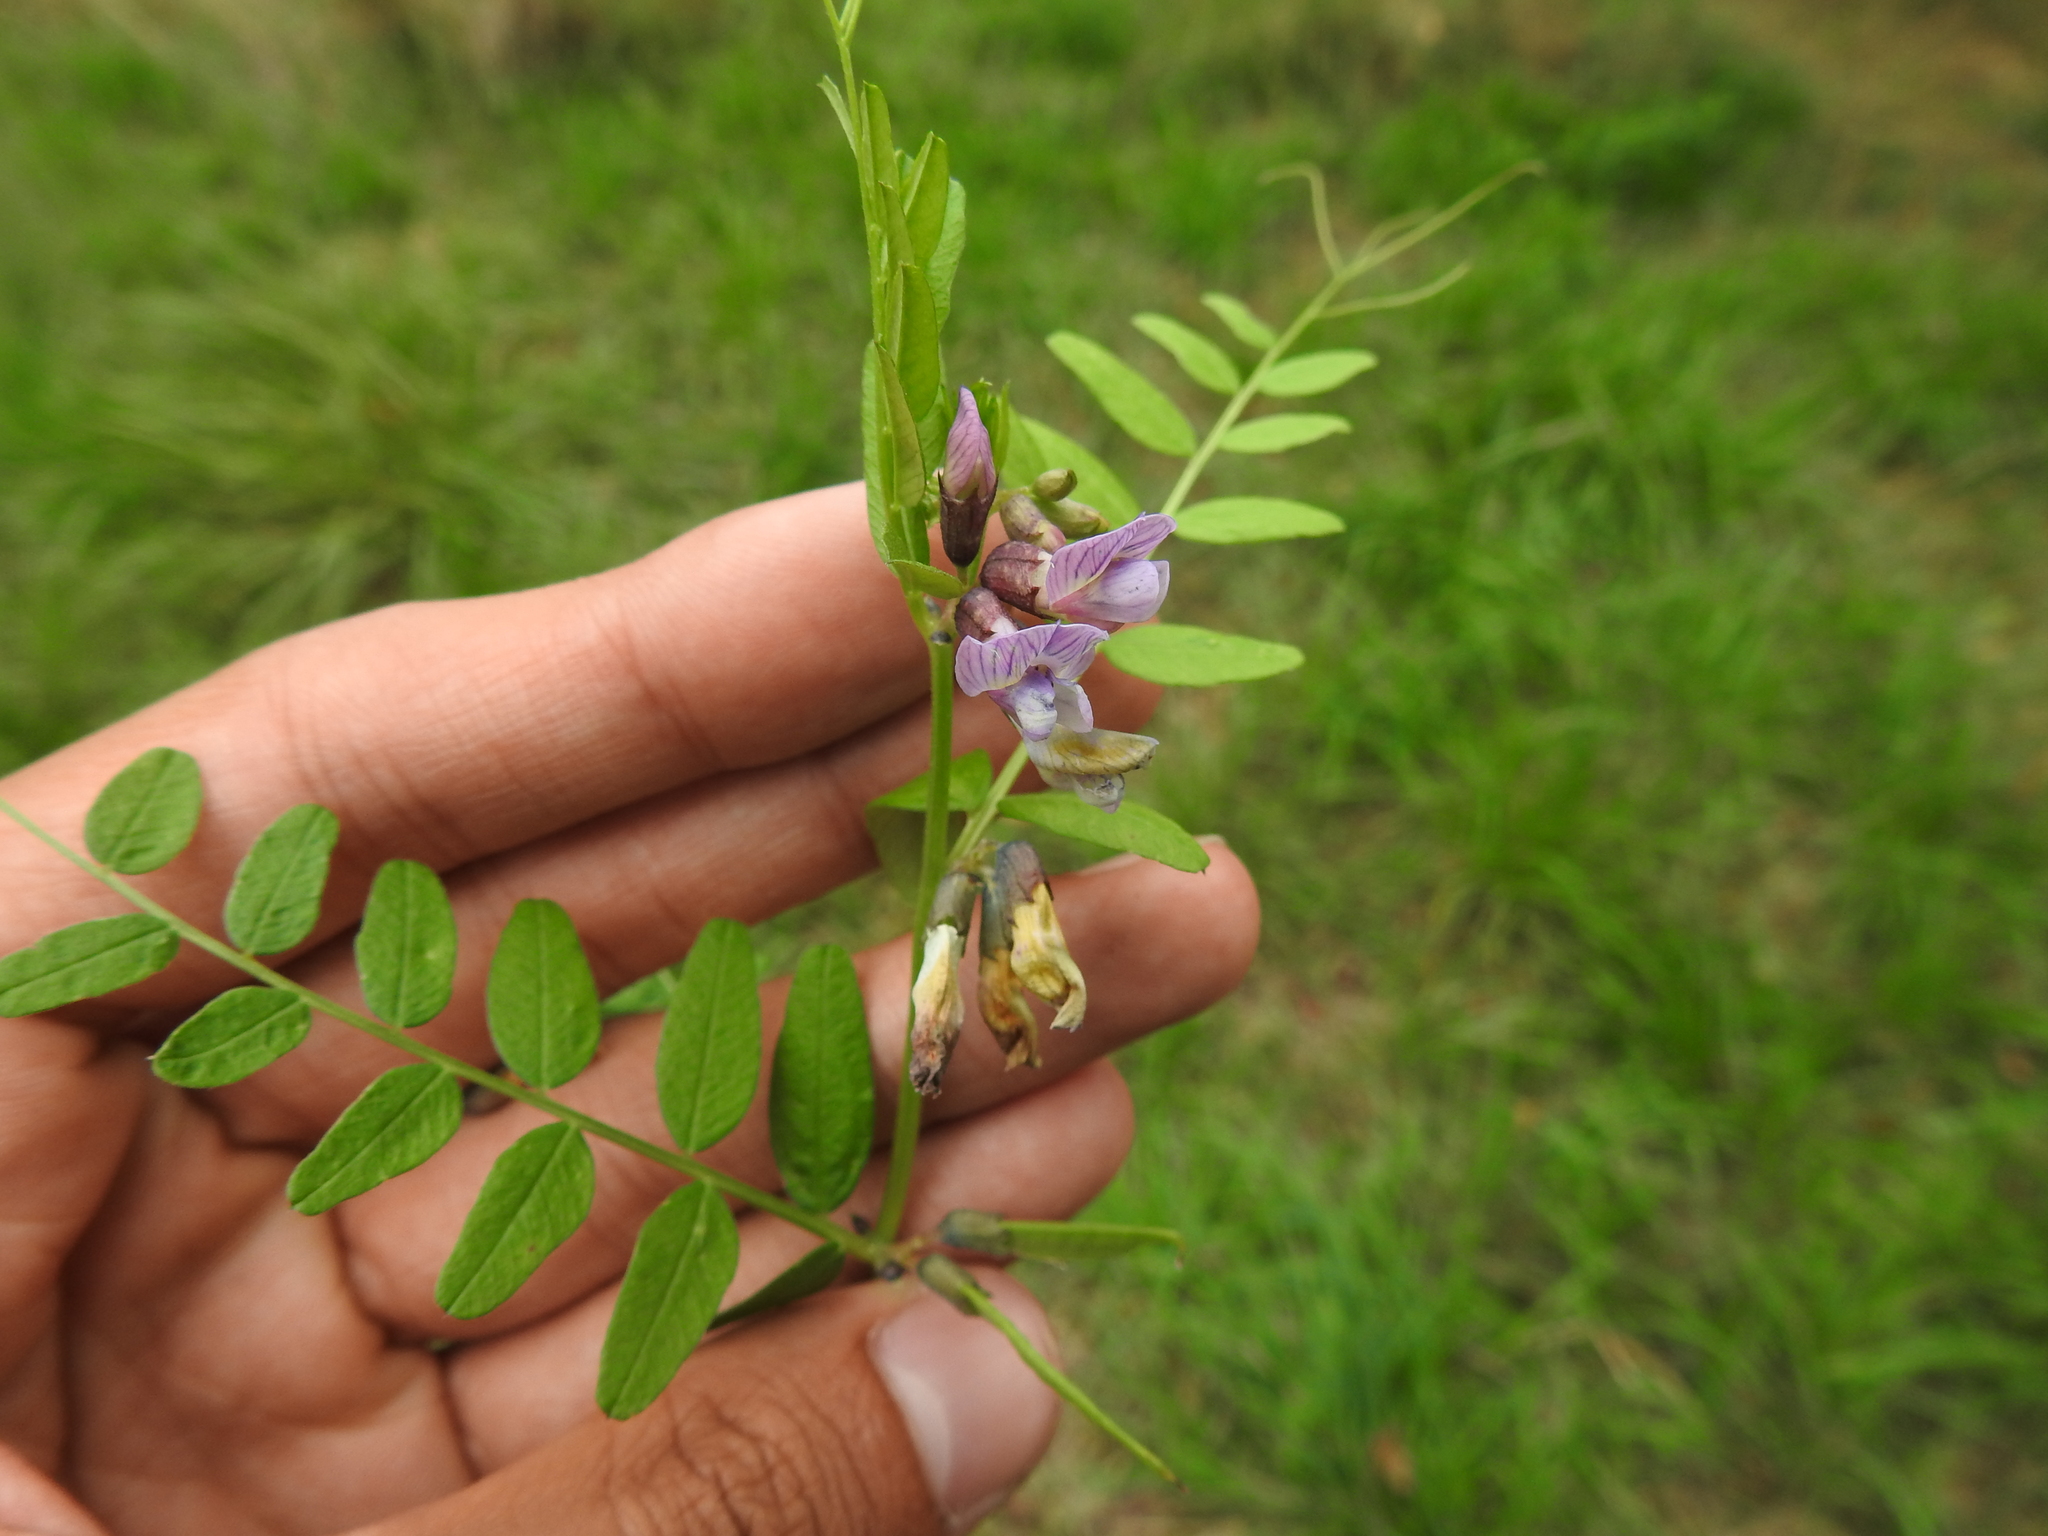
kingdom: Plantae
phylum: Tracheophyta
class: Magnoliopsida
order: Fabales
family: Fabaceae
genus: Vicia
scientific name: Vicia sepium
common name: Bush vetch
